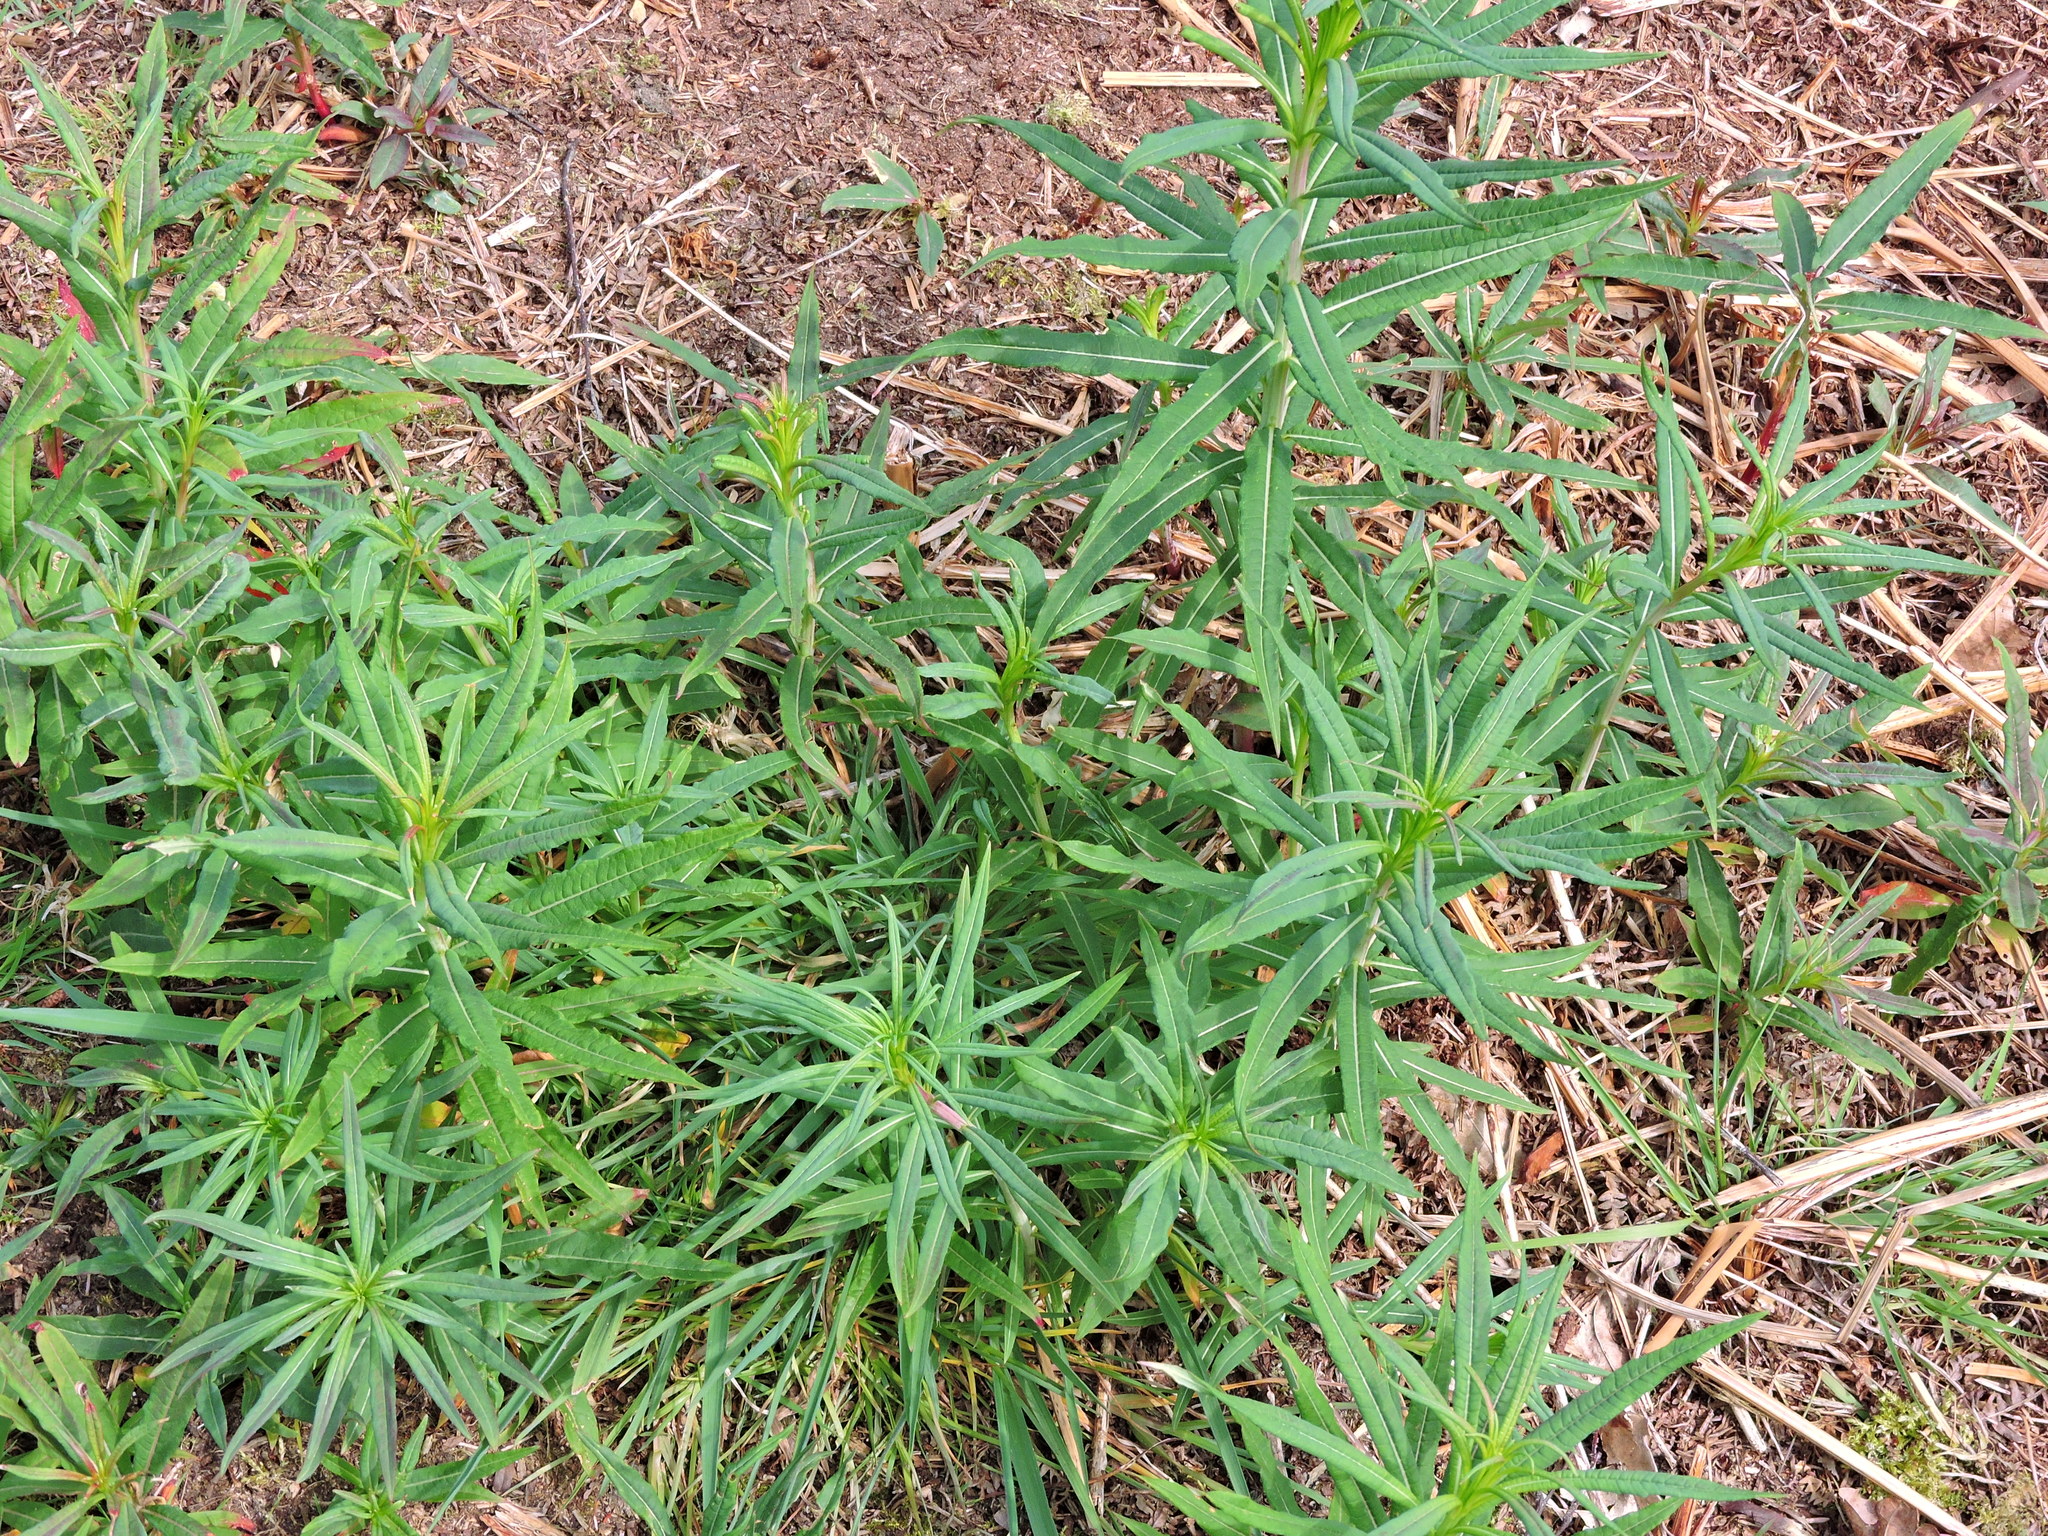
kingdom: Plantae
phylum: Tracheophyta
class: Magnoliopsida
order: Myrtales
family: Onagraceae
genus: Chamaenerion
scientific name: Chamaenerion angustifolium
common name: Fireweed
